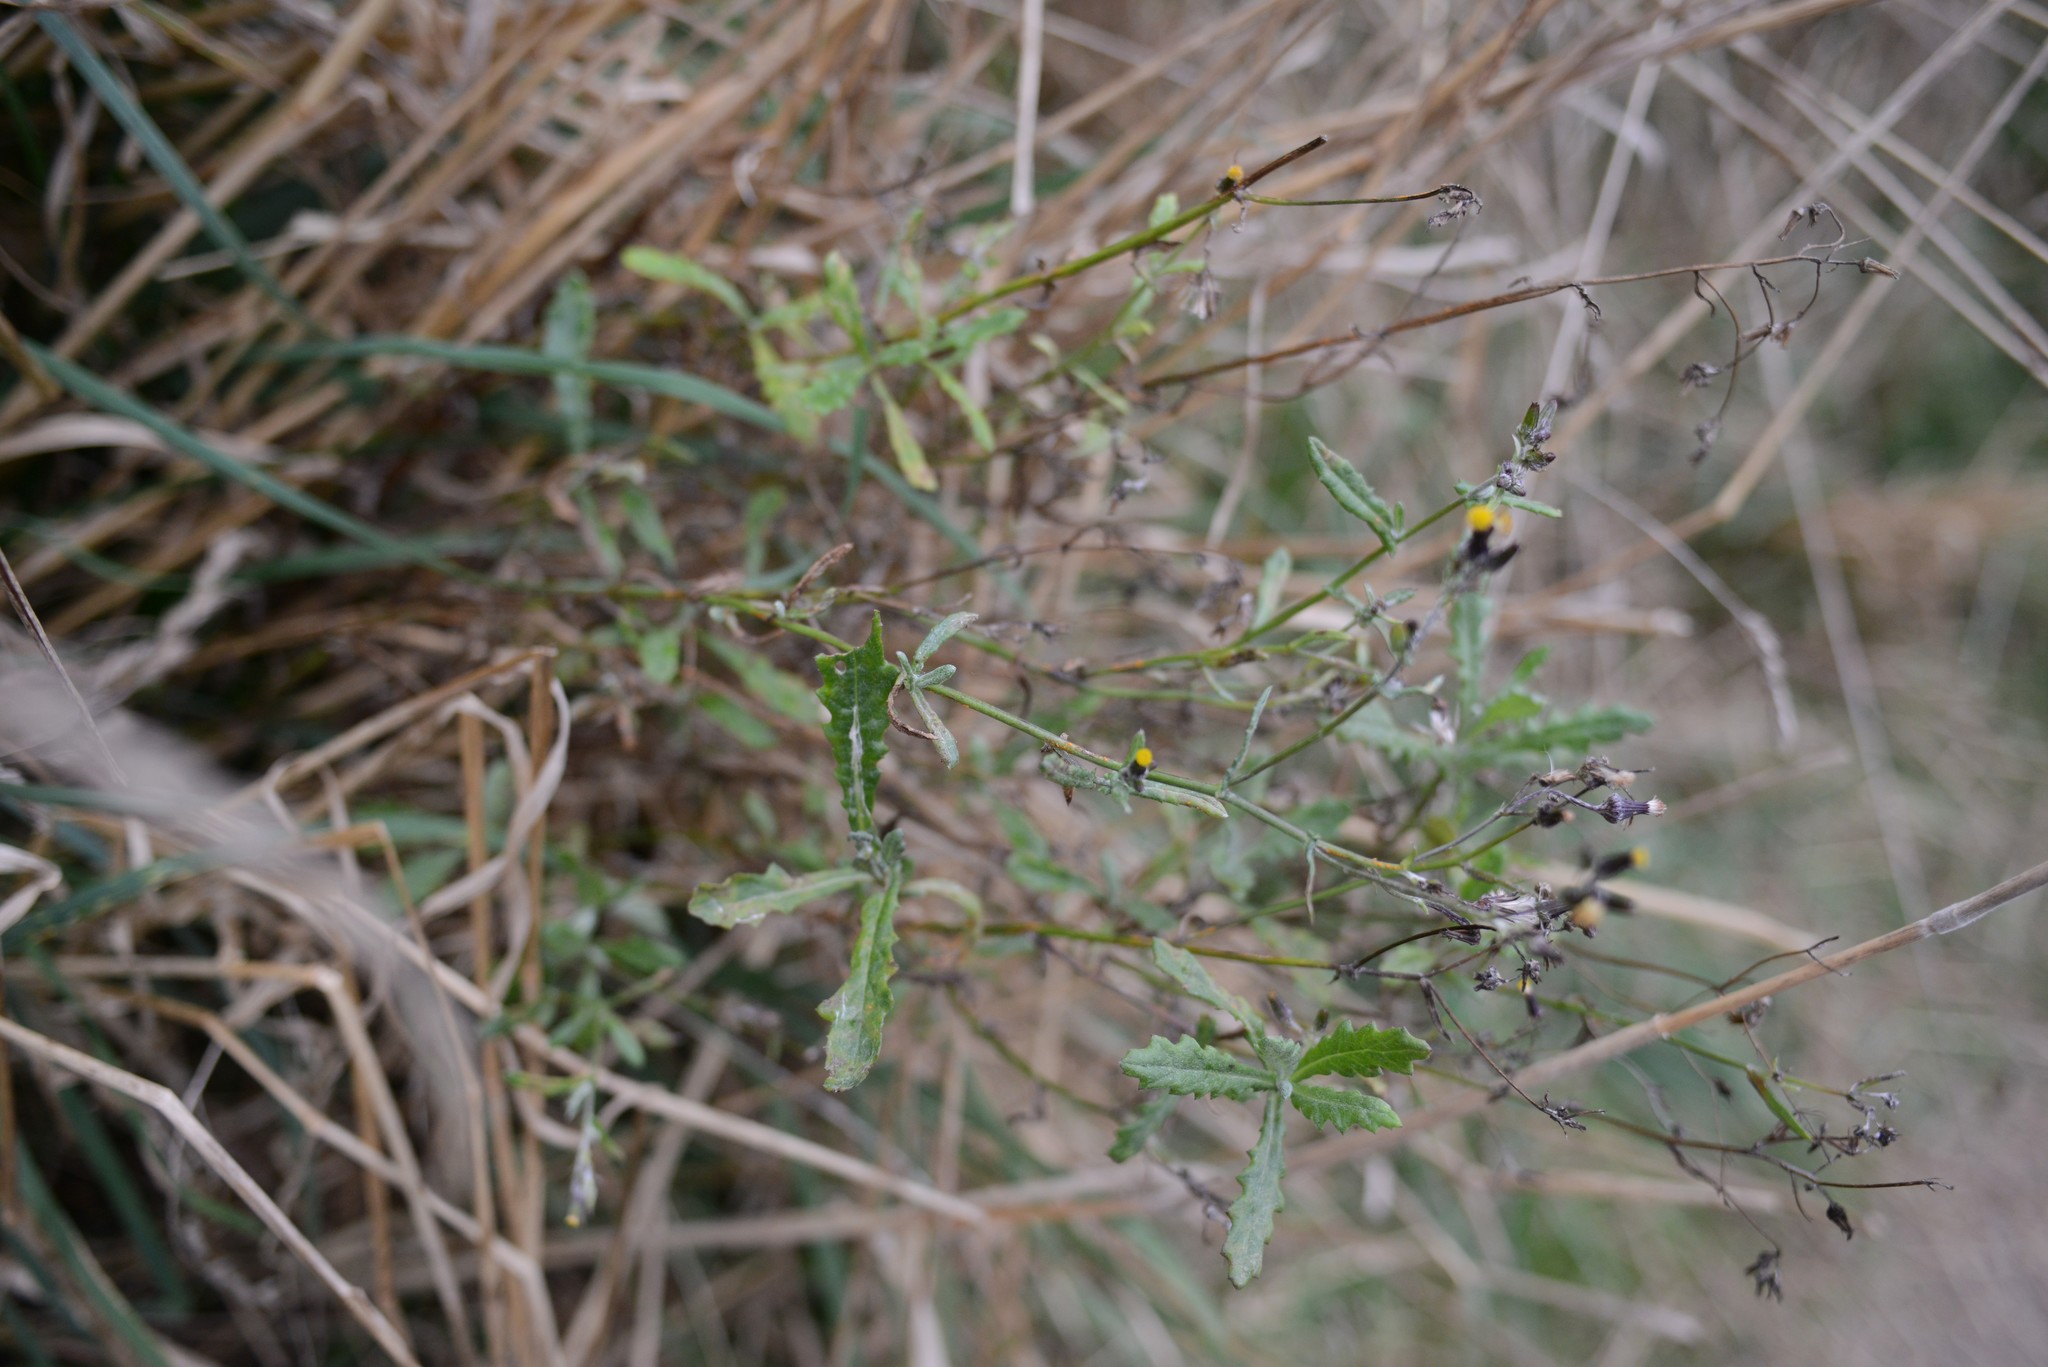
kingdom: Plantae
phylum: Tracheophyta
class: Magnoliopsida
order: Asterales
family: Asteraceae
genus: Senecio
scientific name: Senecio glomeratus
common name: Cutleaf burnweed
